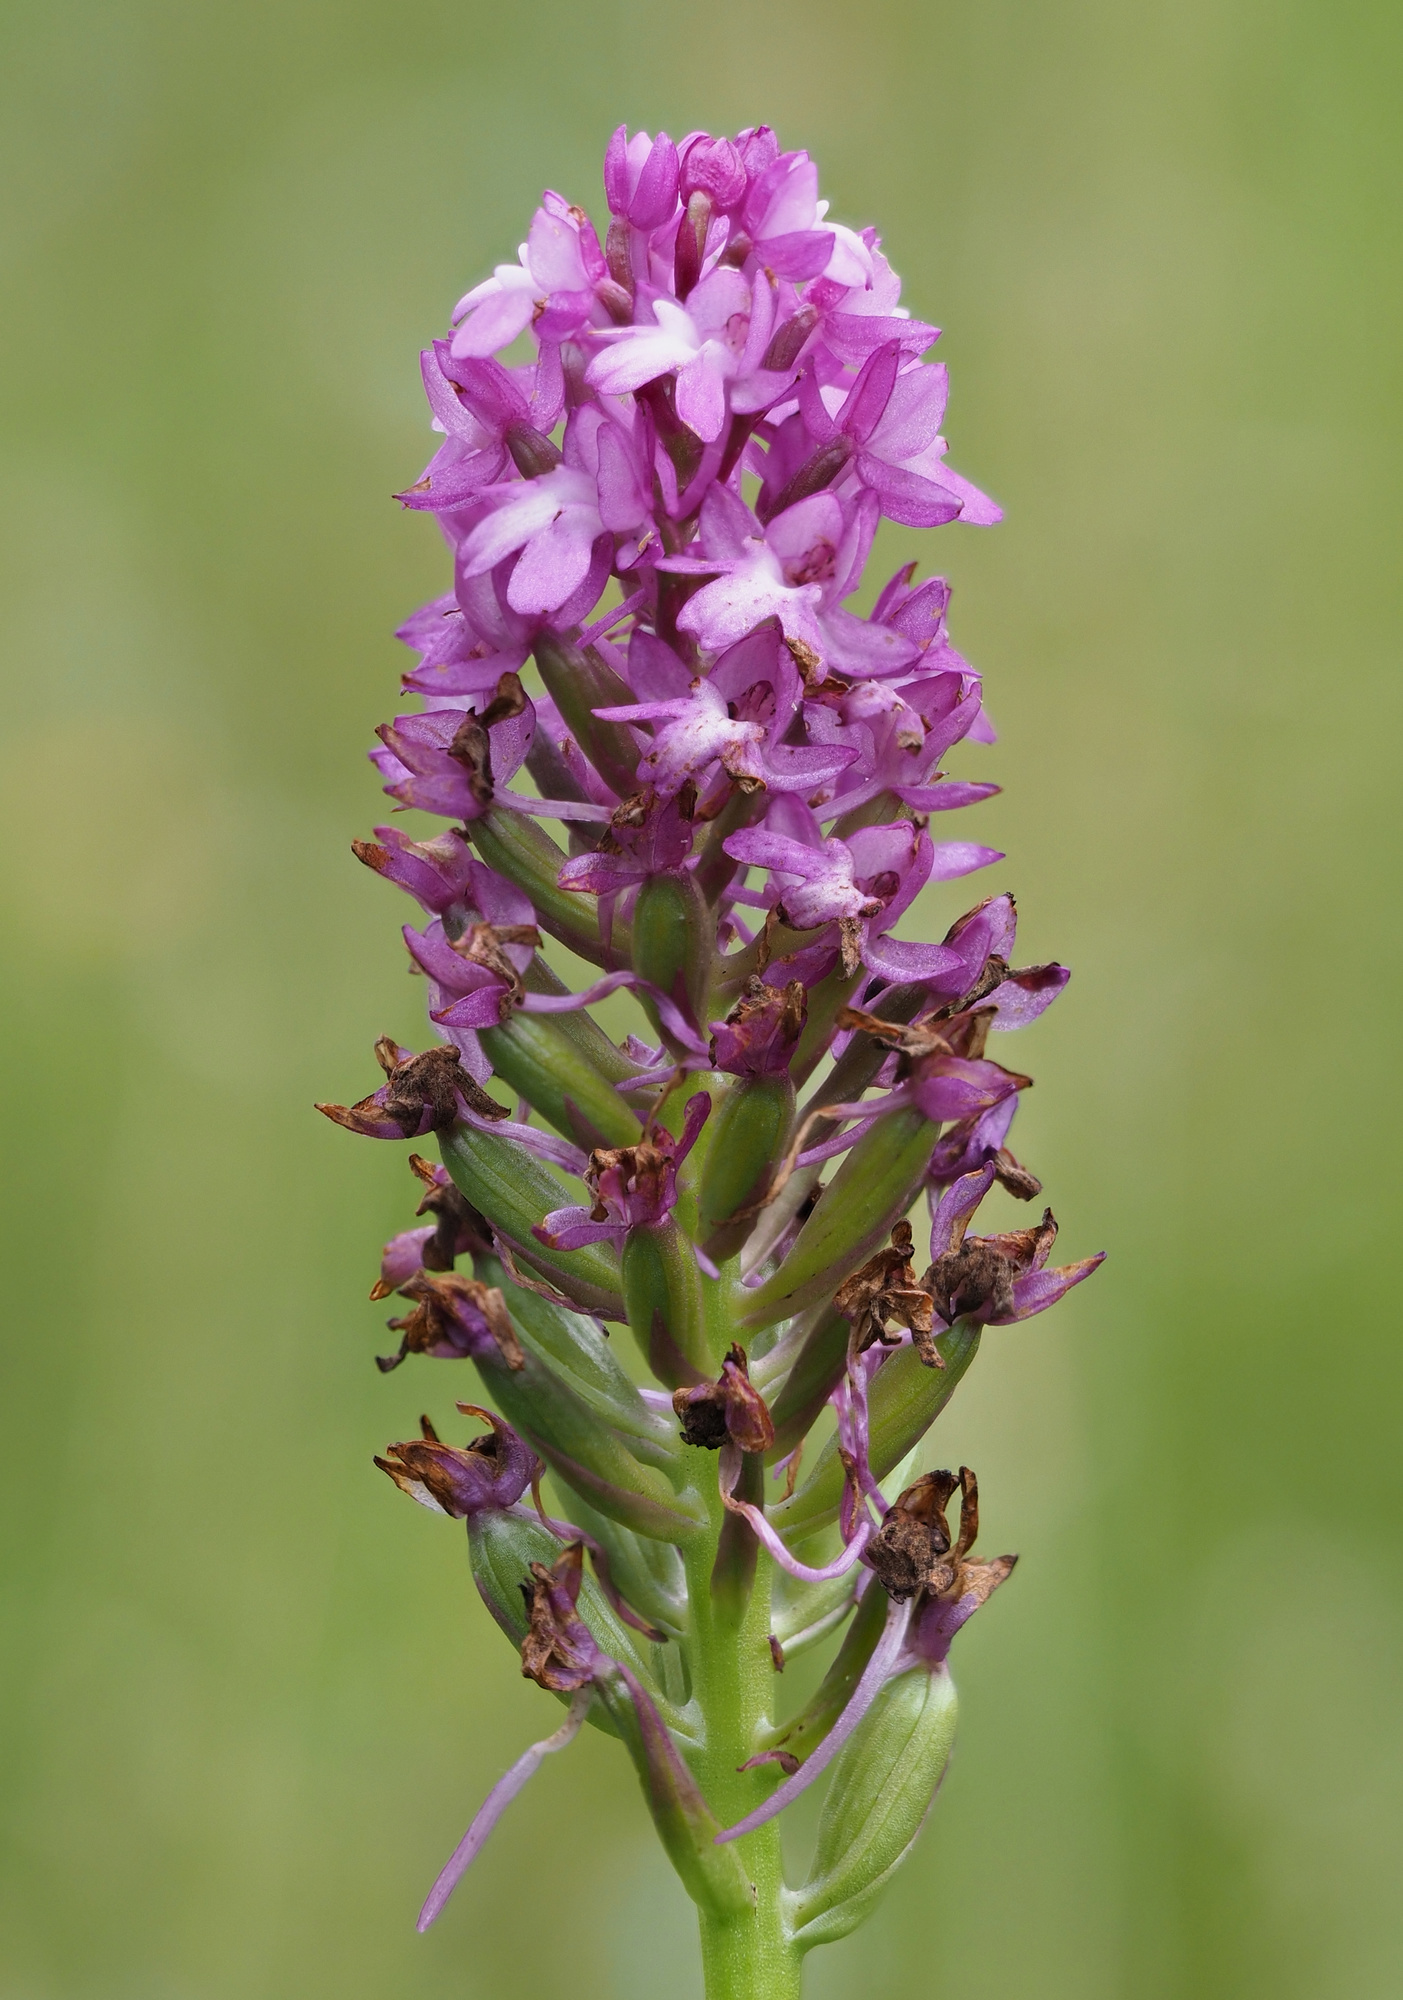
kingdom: Plantae
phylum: Tracheophyta
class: Liliopsida
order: Asparagales
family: Orchidaceae
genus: Anacamptis
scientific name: Anacamptis pyramidalis
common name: Pyramidal orchid
